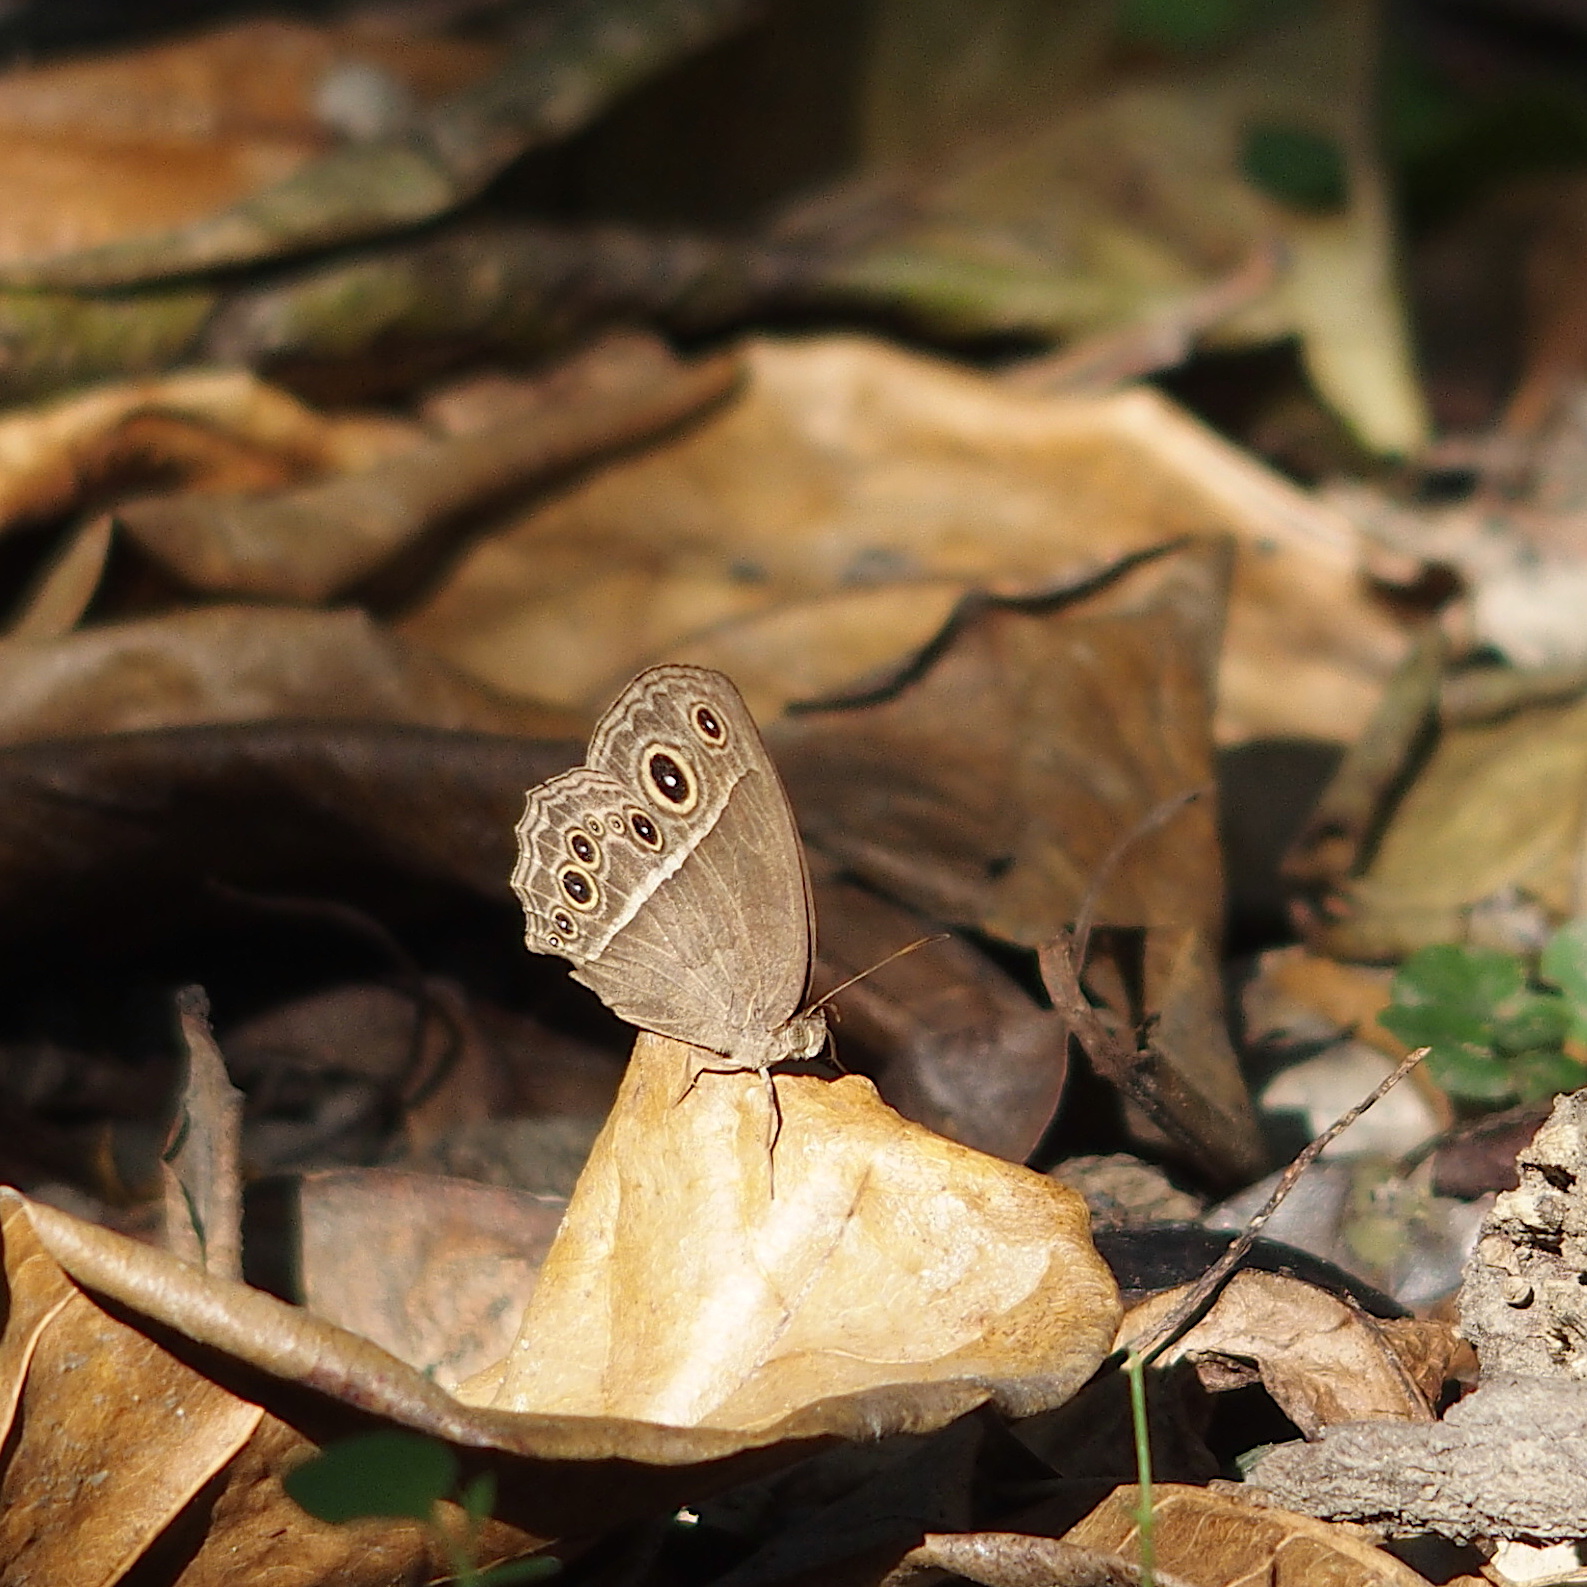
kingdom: Animalia
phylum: Arthropoda
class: Insecta
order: Lepidoptera
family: Nymphalidae
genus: Mycalesis
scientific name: Mycalesis horsfieldii
